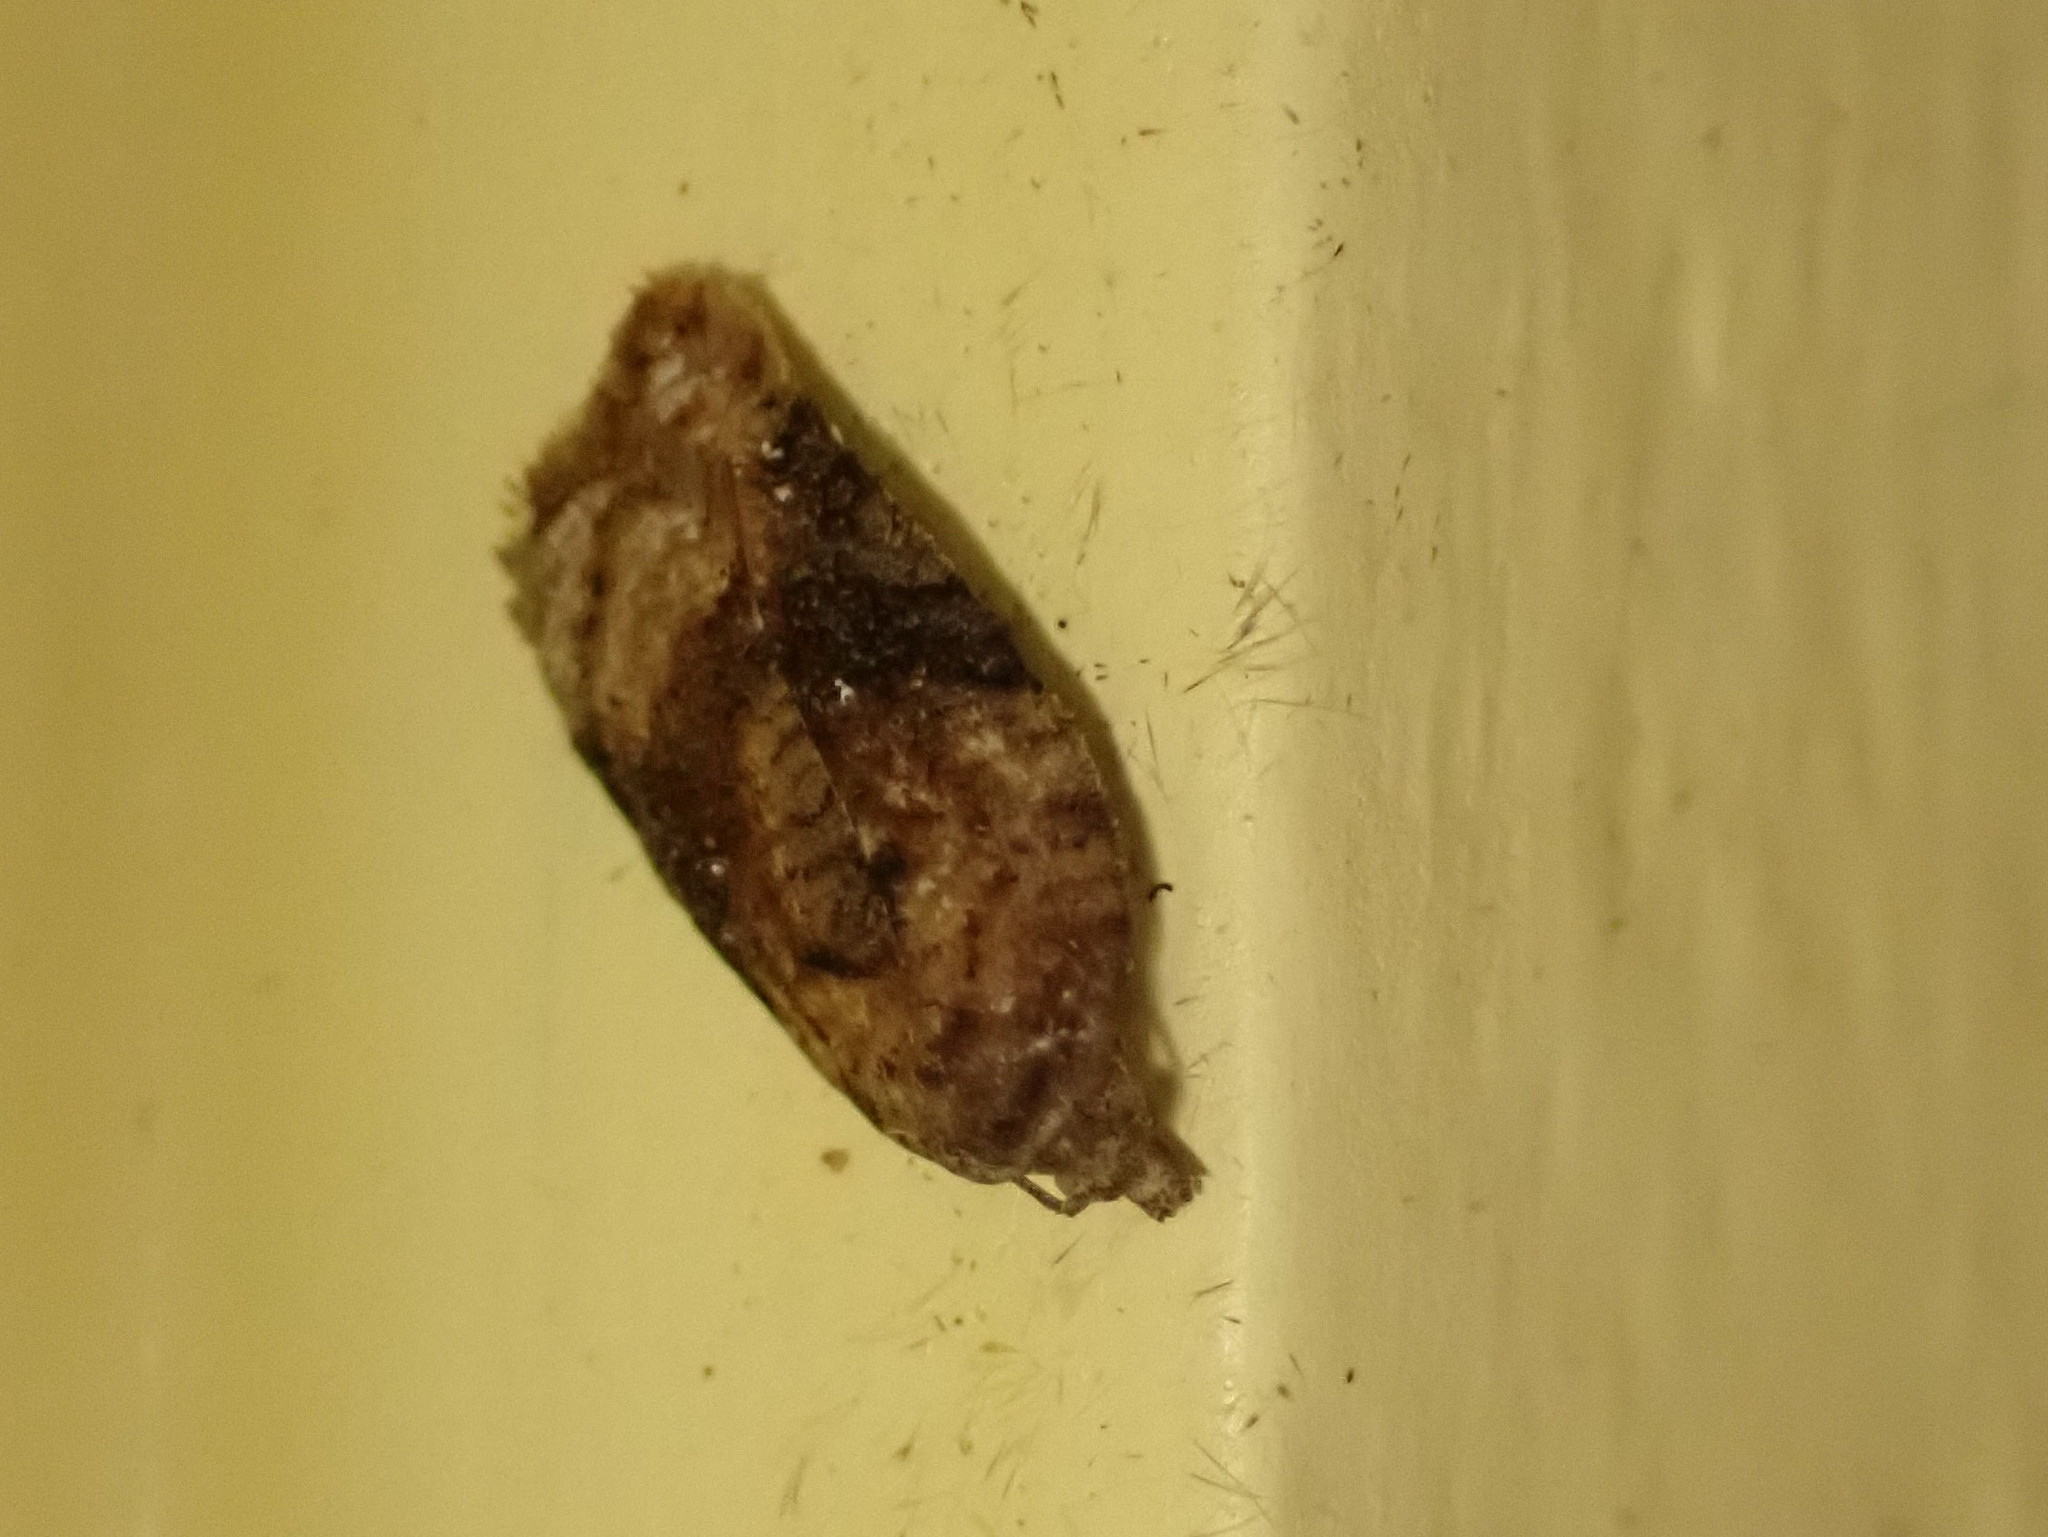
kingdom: Animalia
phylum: Arthropoda
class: Insecta
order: Lepidoptera
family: Tortricidae
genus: Acleris
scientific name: Acleris braunana
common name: Alder leafroller
